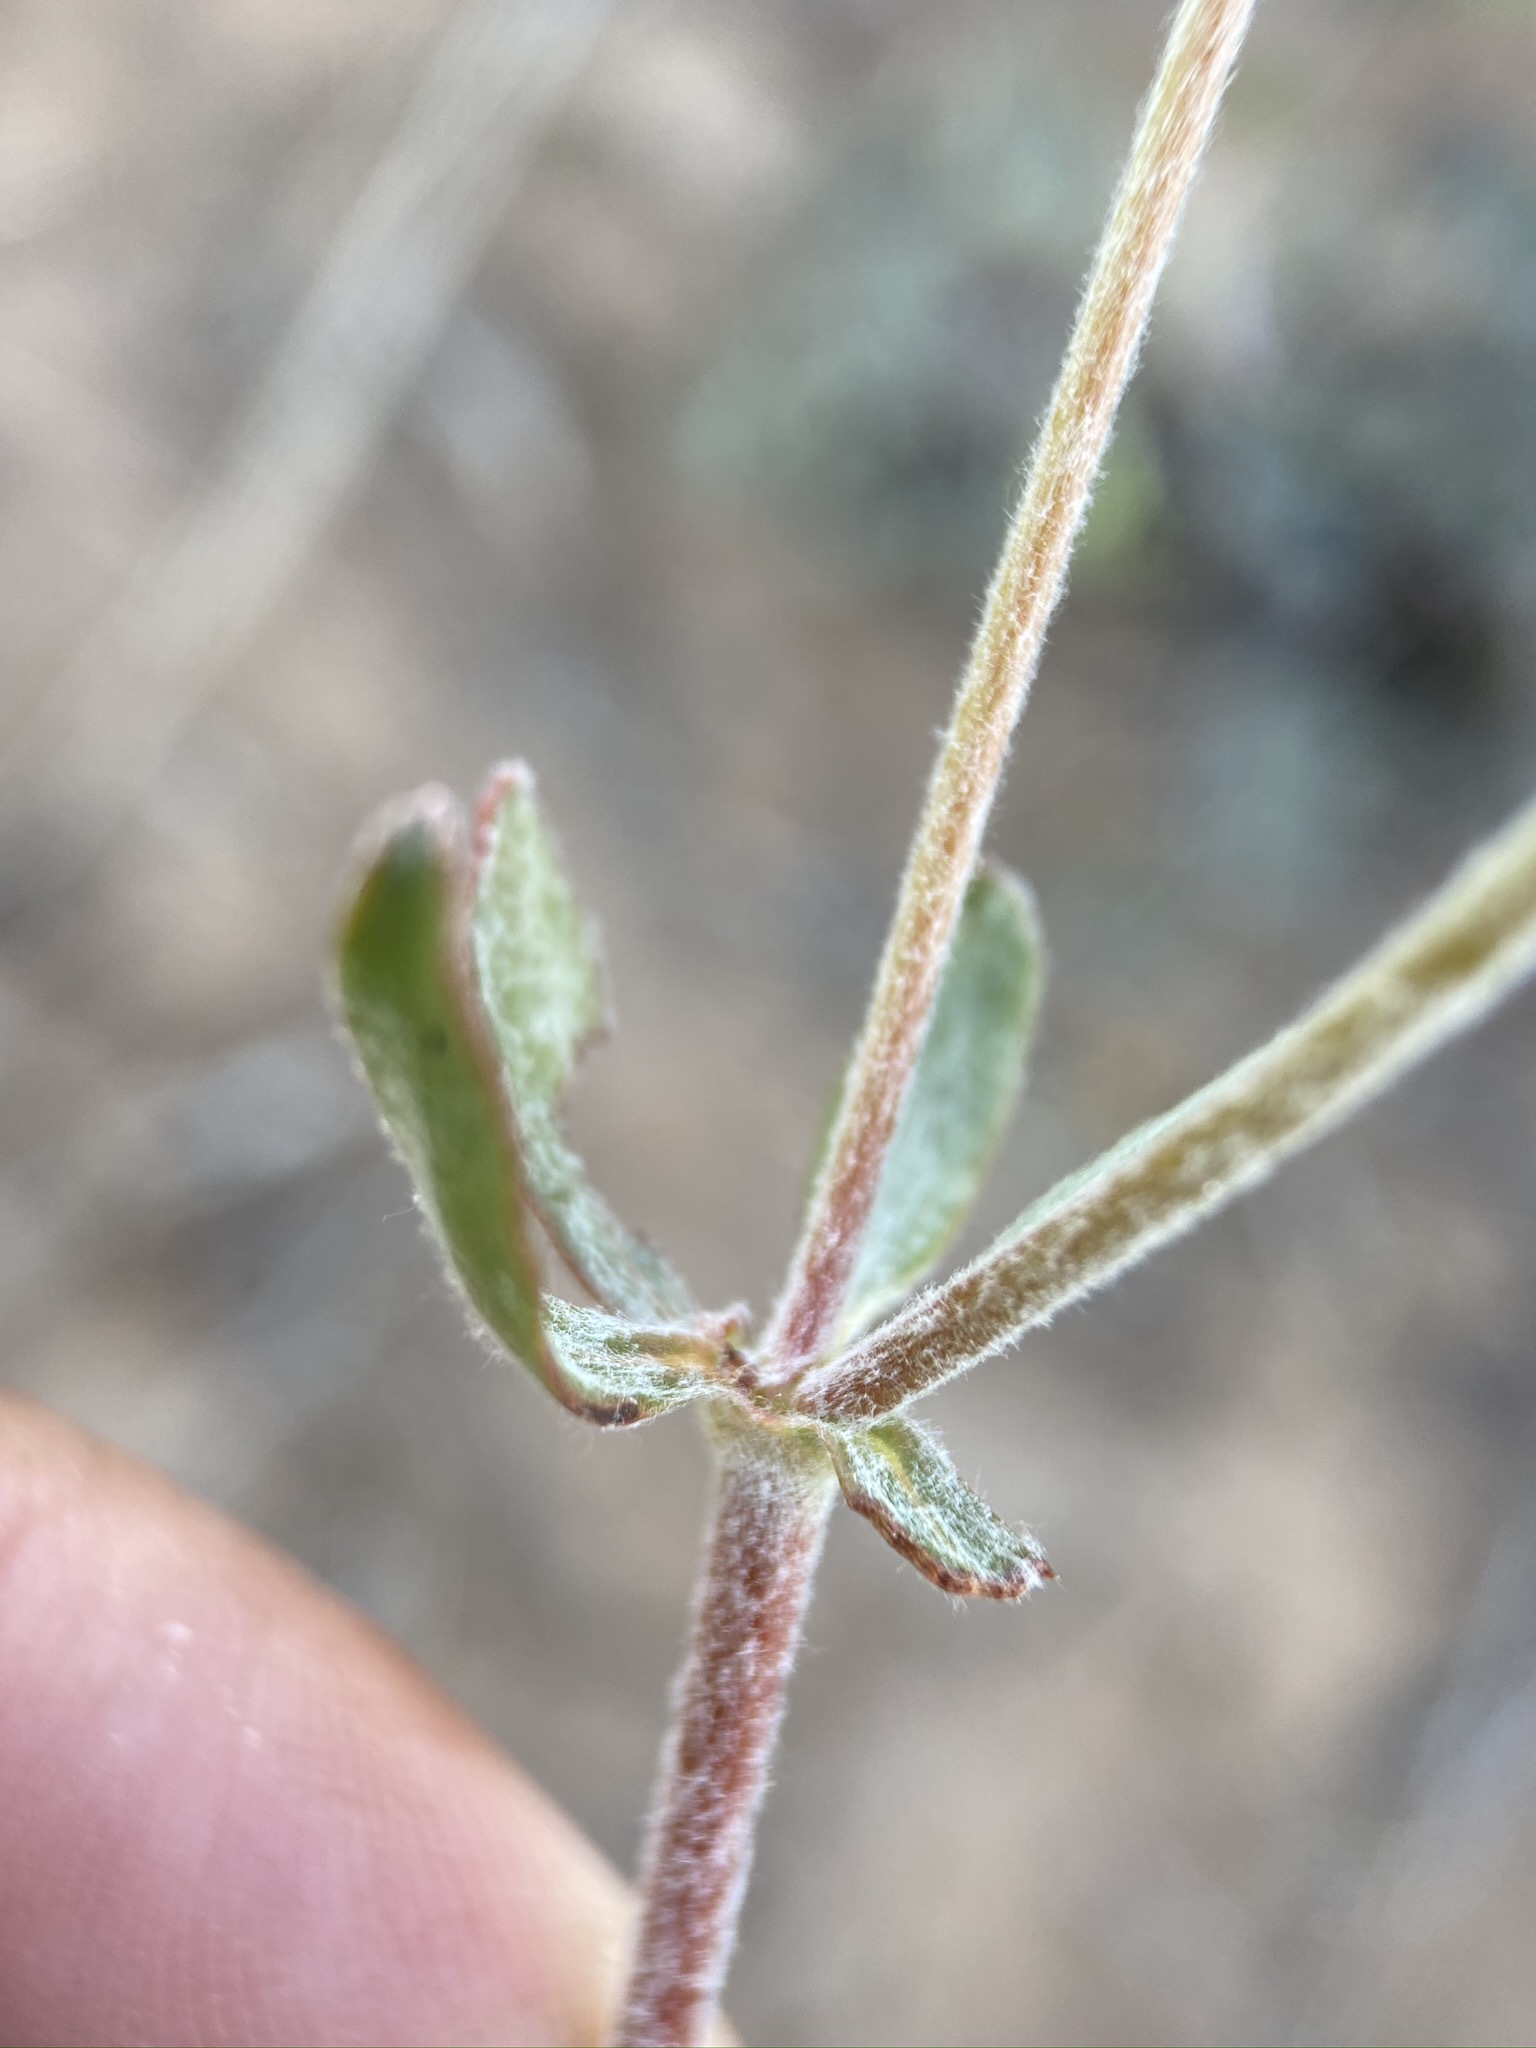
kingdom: Plantae
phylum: Tracheophyta
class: Magnoliopsida
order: Caryophyllales
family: Polygonaceae
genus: Eriogonum
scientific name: Eriogonum umbellatum
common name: Sulfur-buckwheat
